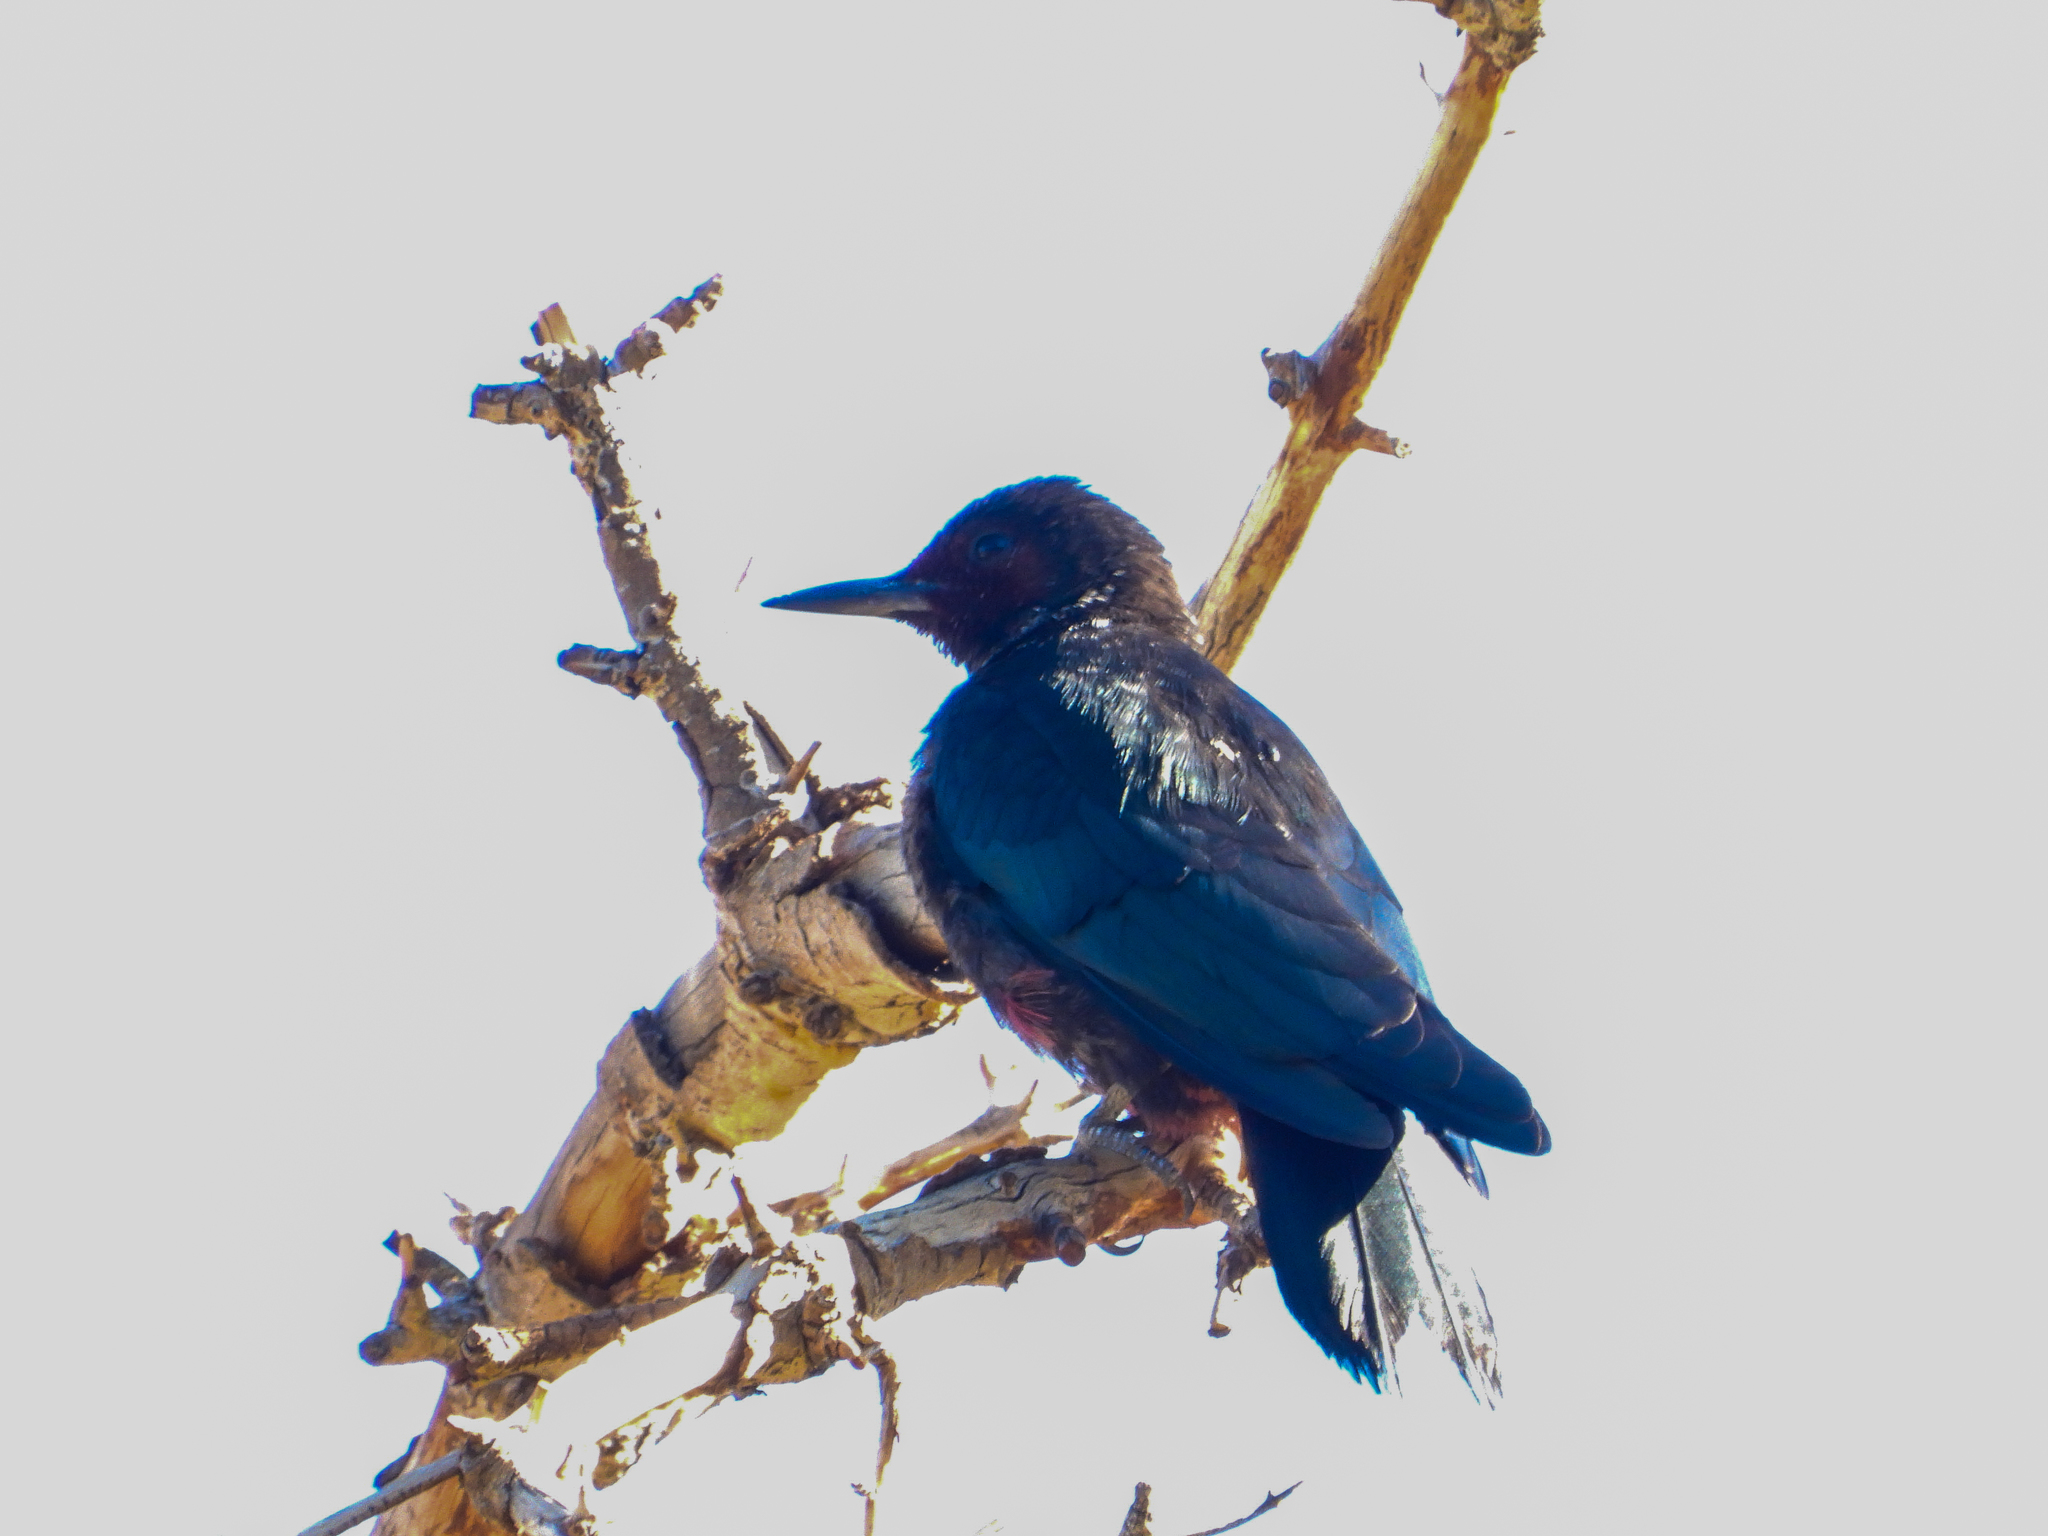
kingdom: Animalia
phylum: Chordata
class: Aves
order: Piciformes
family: Picidae
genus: Melanerpes
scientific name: Melanerpes lewis
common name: Lewis's woodpecker
